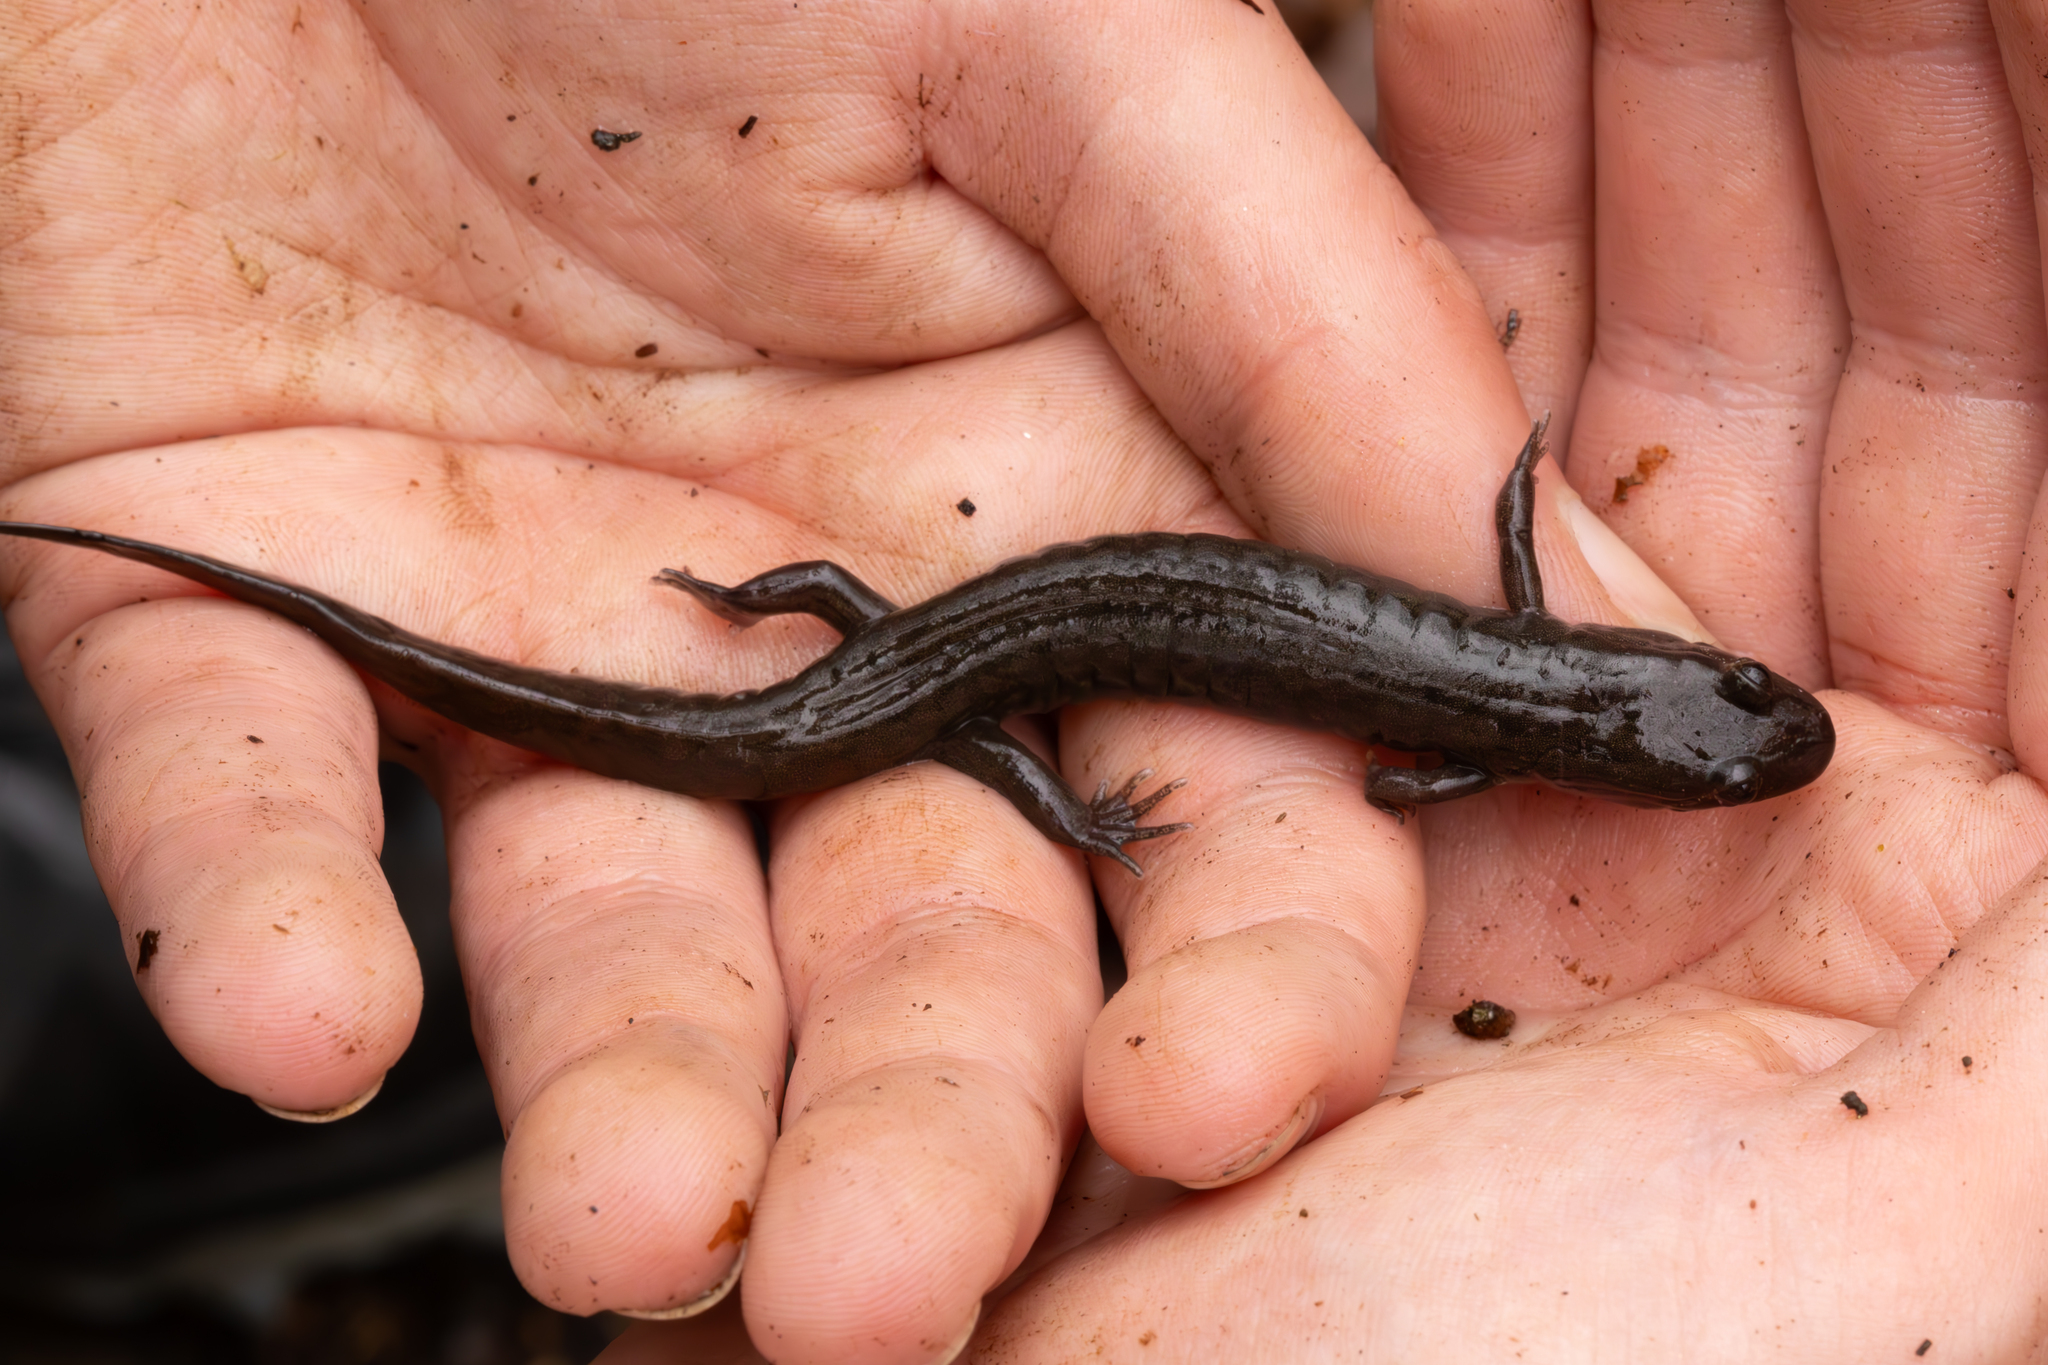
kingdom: Animalia
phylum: Chordata
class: Amphibia
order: Caudata
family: Plethodontidae
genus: Desmognathus
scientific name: Desmognathus
